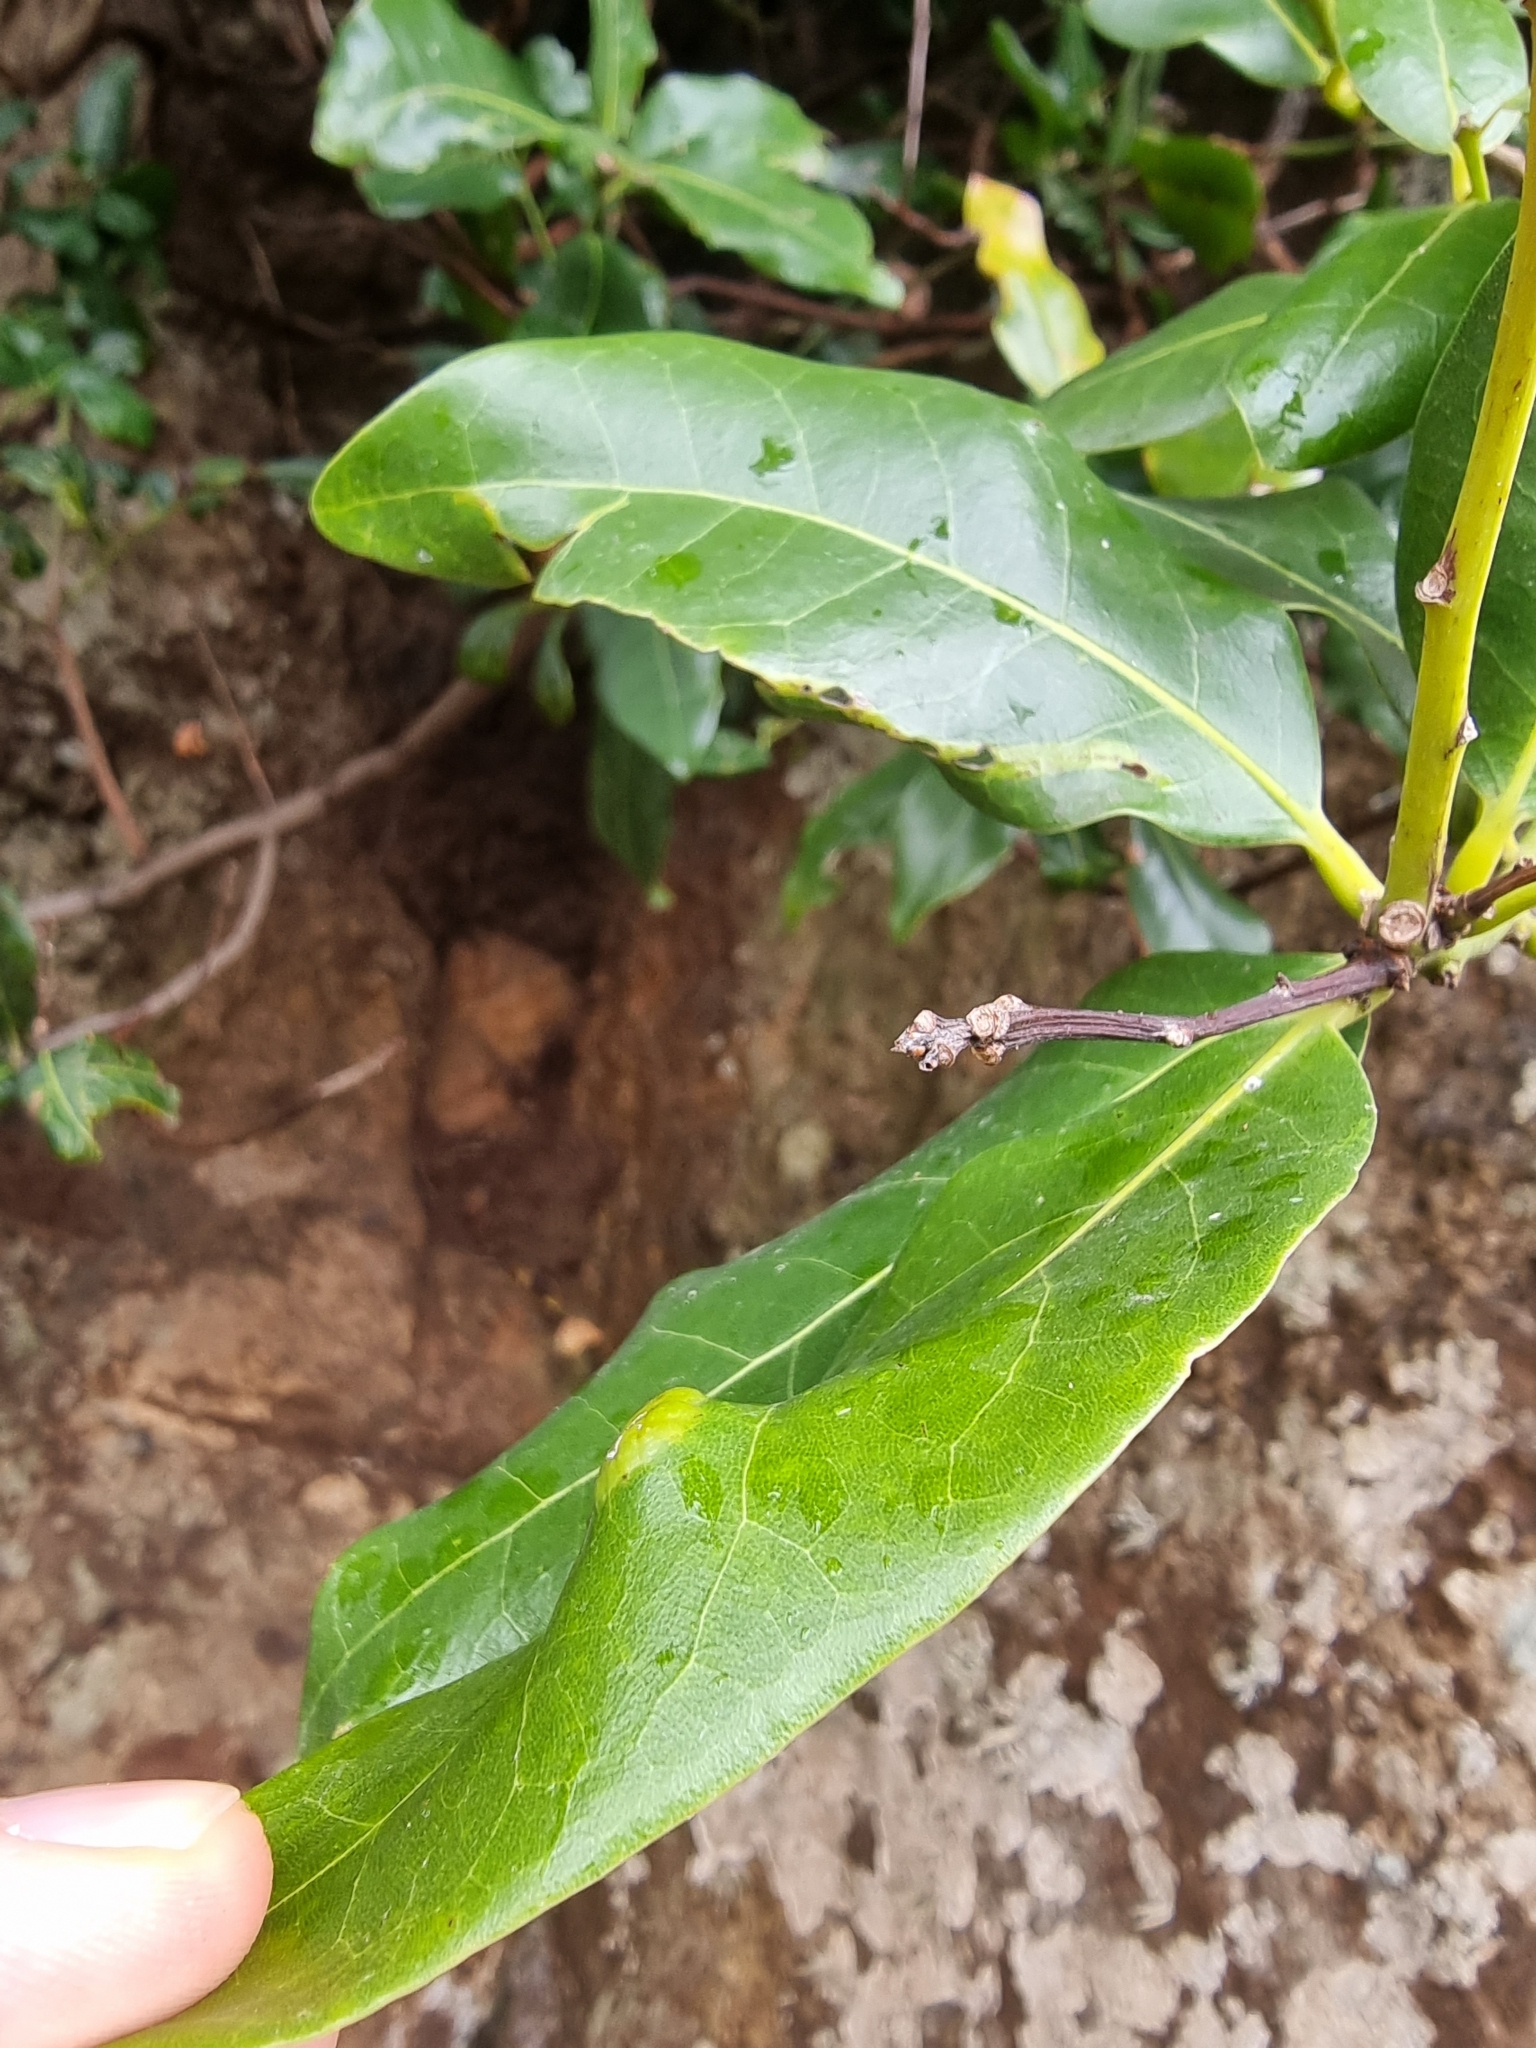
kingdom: Animalia
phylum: Arthropoda
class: Arachnida
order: Trombidiformes
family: Eriophyidae
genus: Aceria
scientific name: Aceria barbujanae
